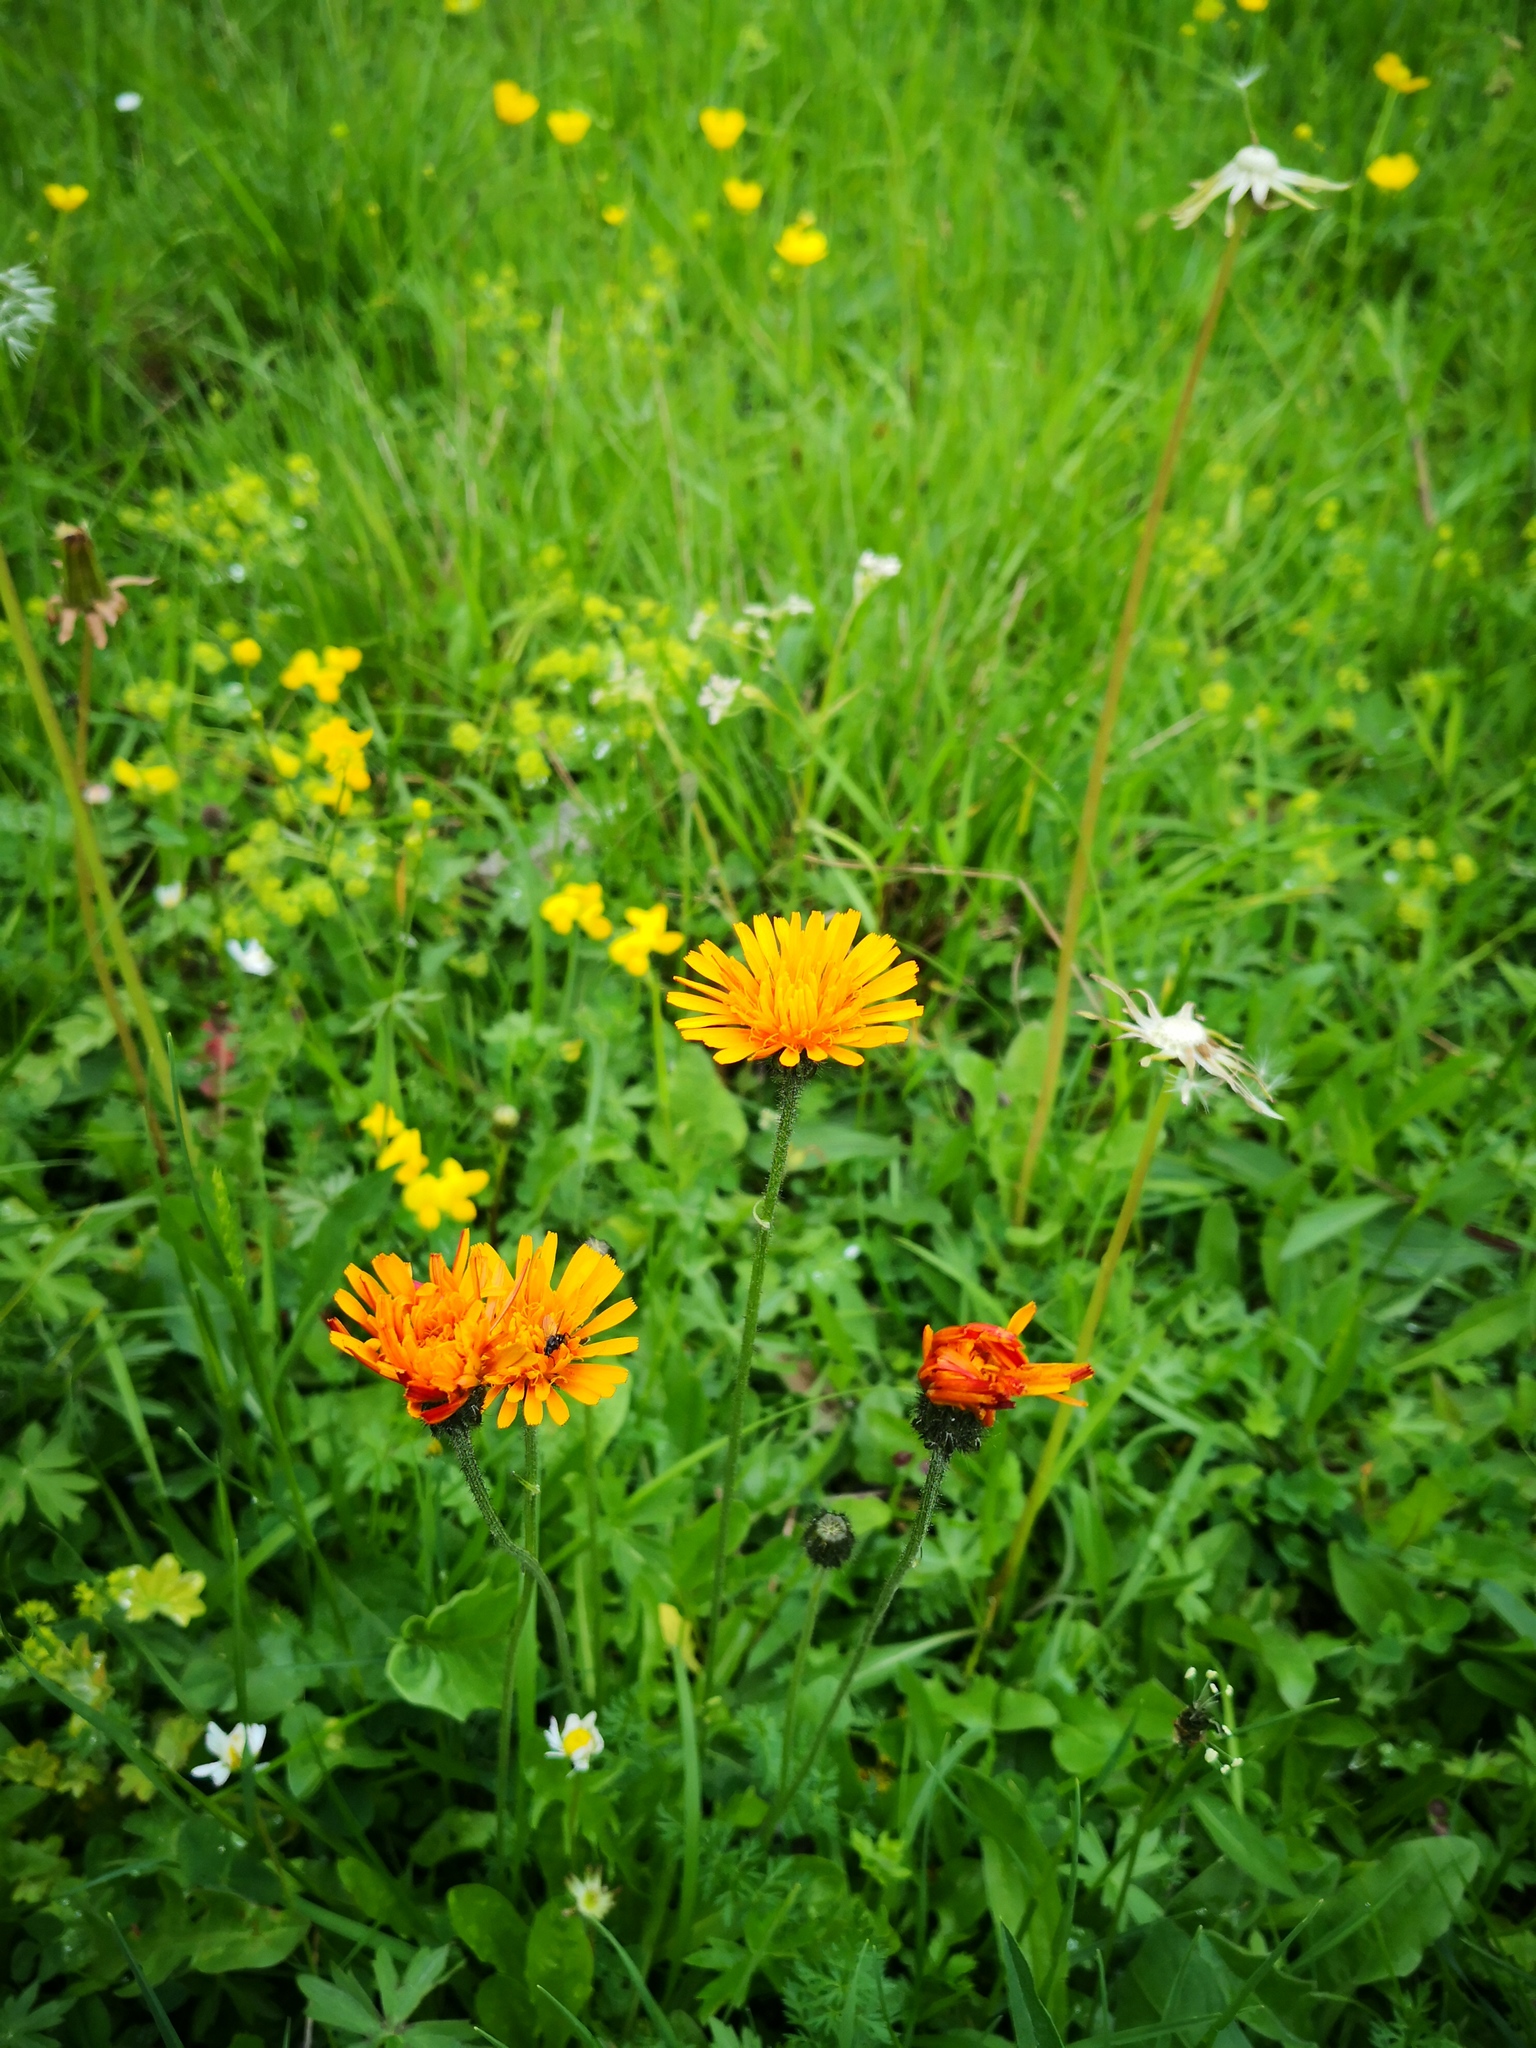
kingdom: Plantae
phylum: Tracheophyta
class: Magnoliopsida
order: Asterales
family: Asteraceae
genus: Crepis
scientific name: Crepis aurea
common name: Golden hawk's-beard
